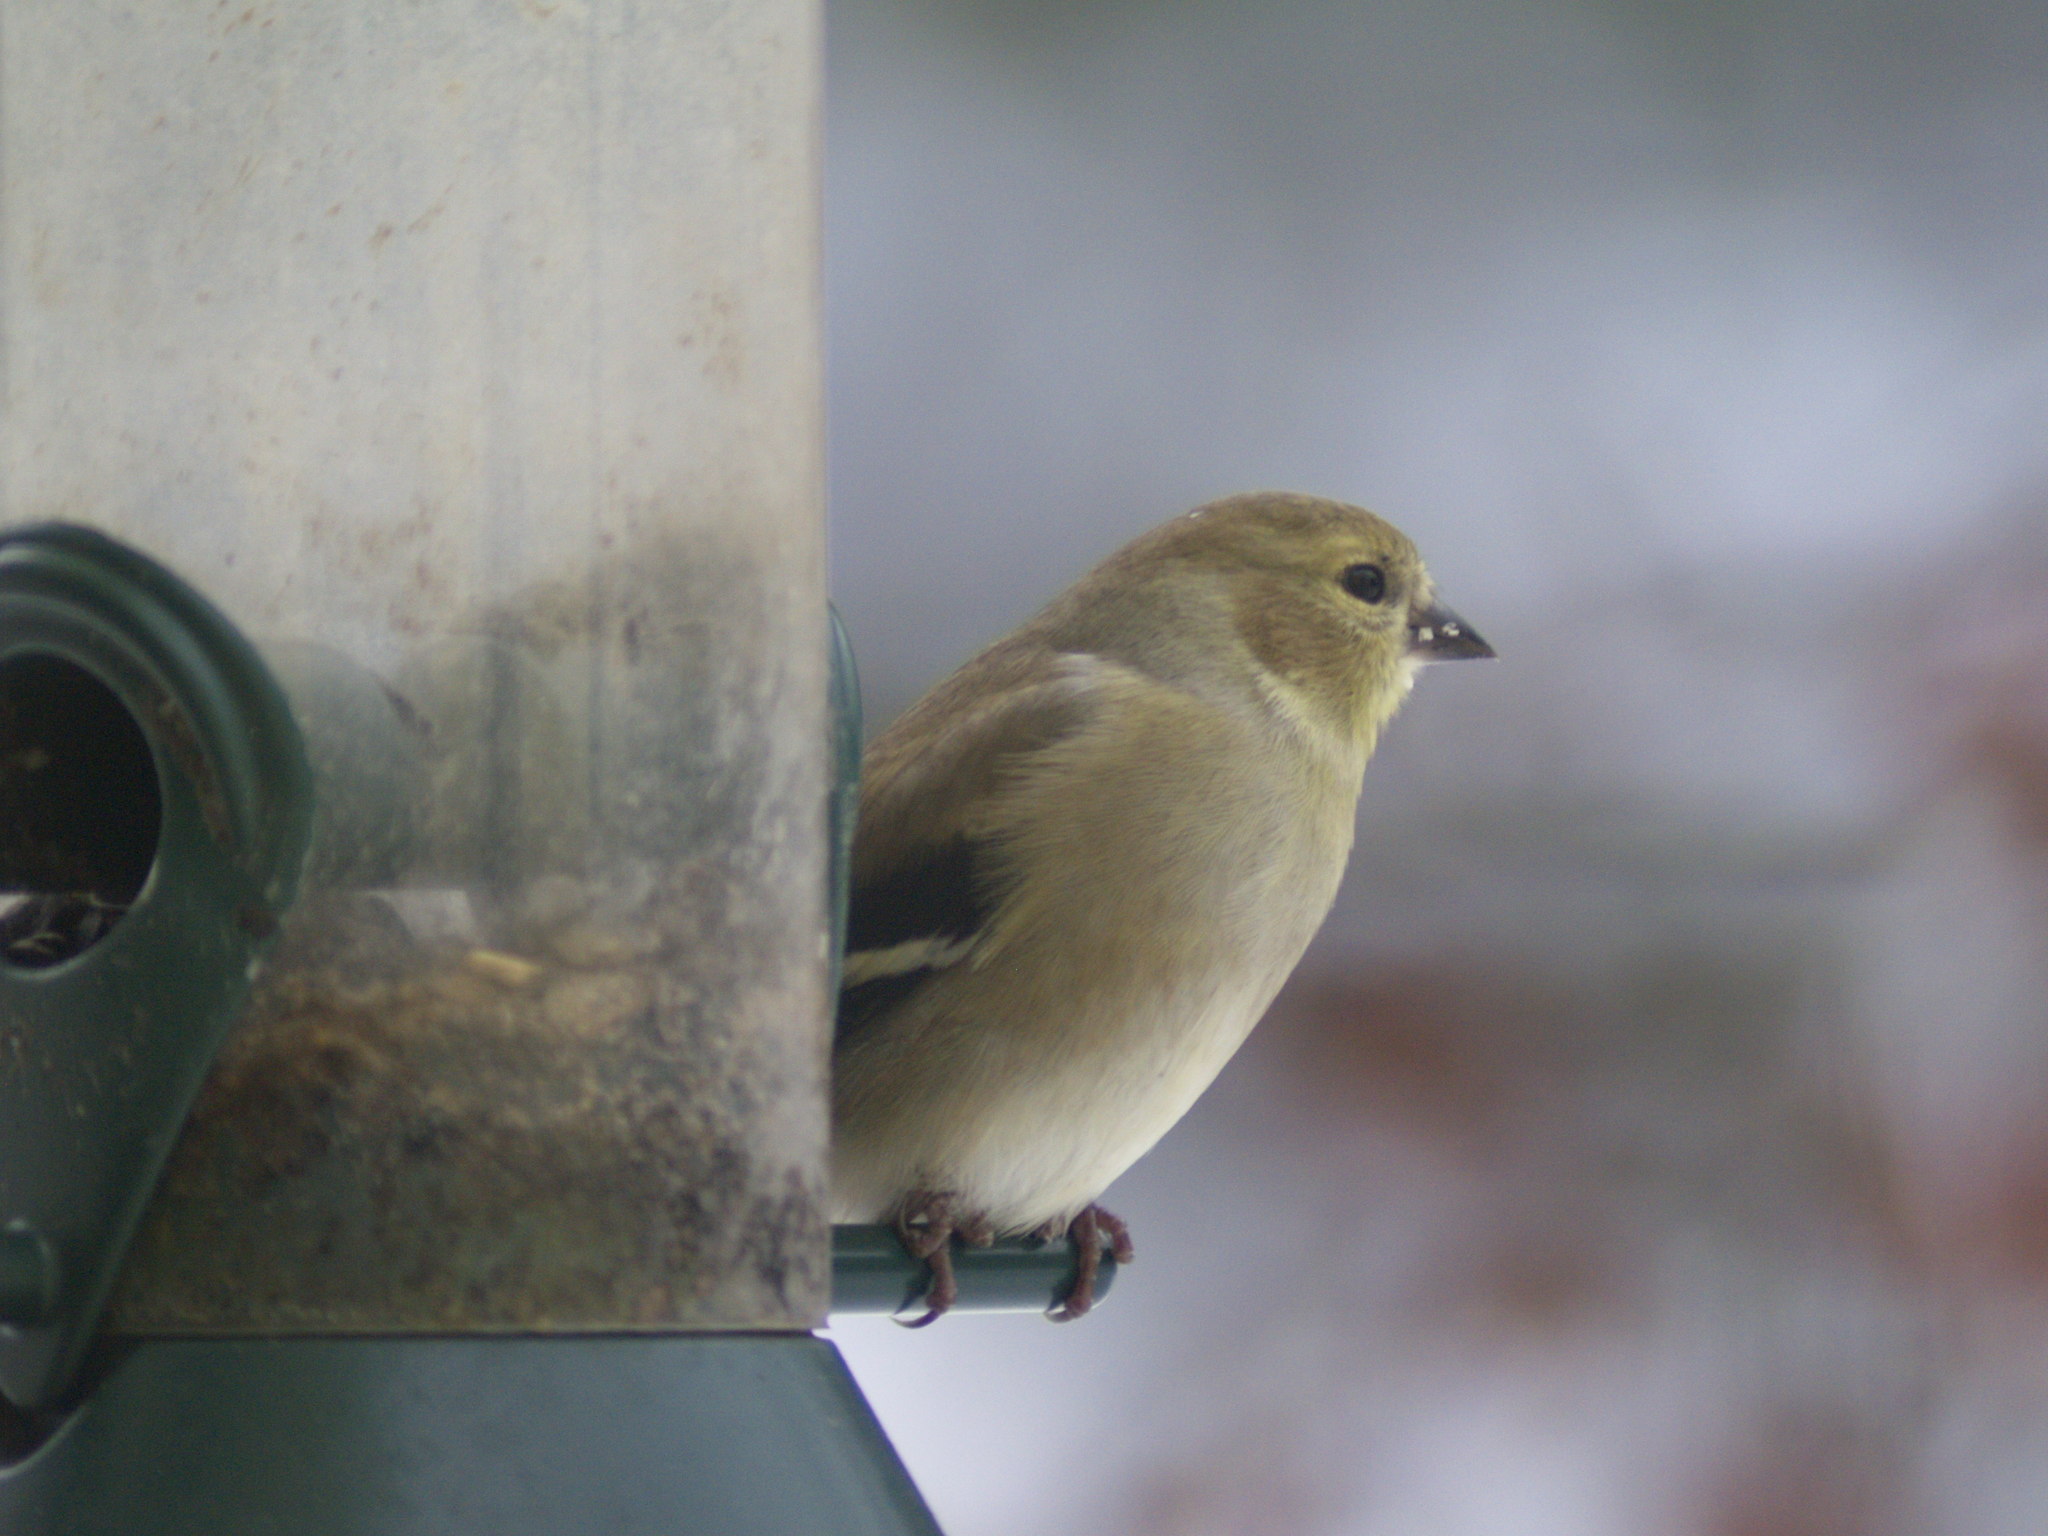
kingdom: Animalia
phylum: Chordata
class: Aves
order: Passeriformes
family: Fringillidae
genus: Spinus
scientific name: Spinus tristis
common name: American goldfinch
